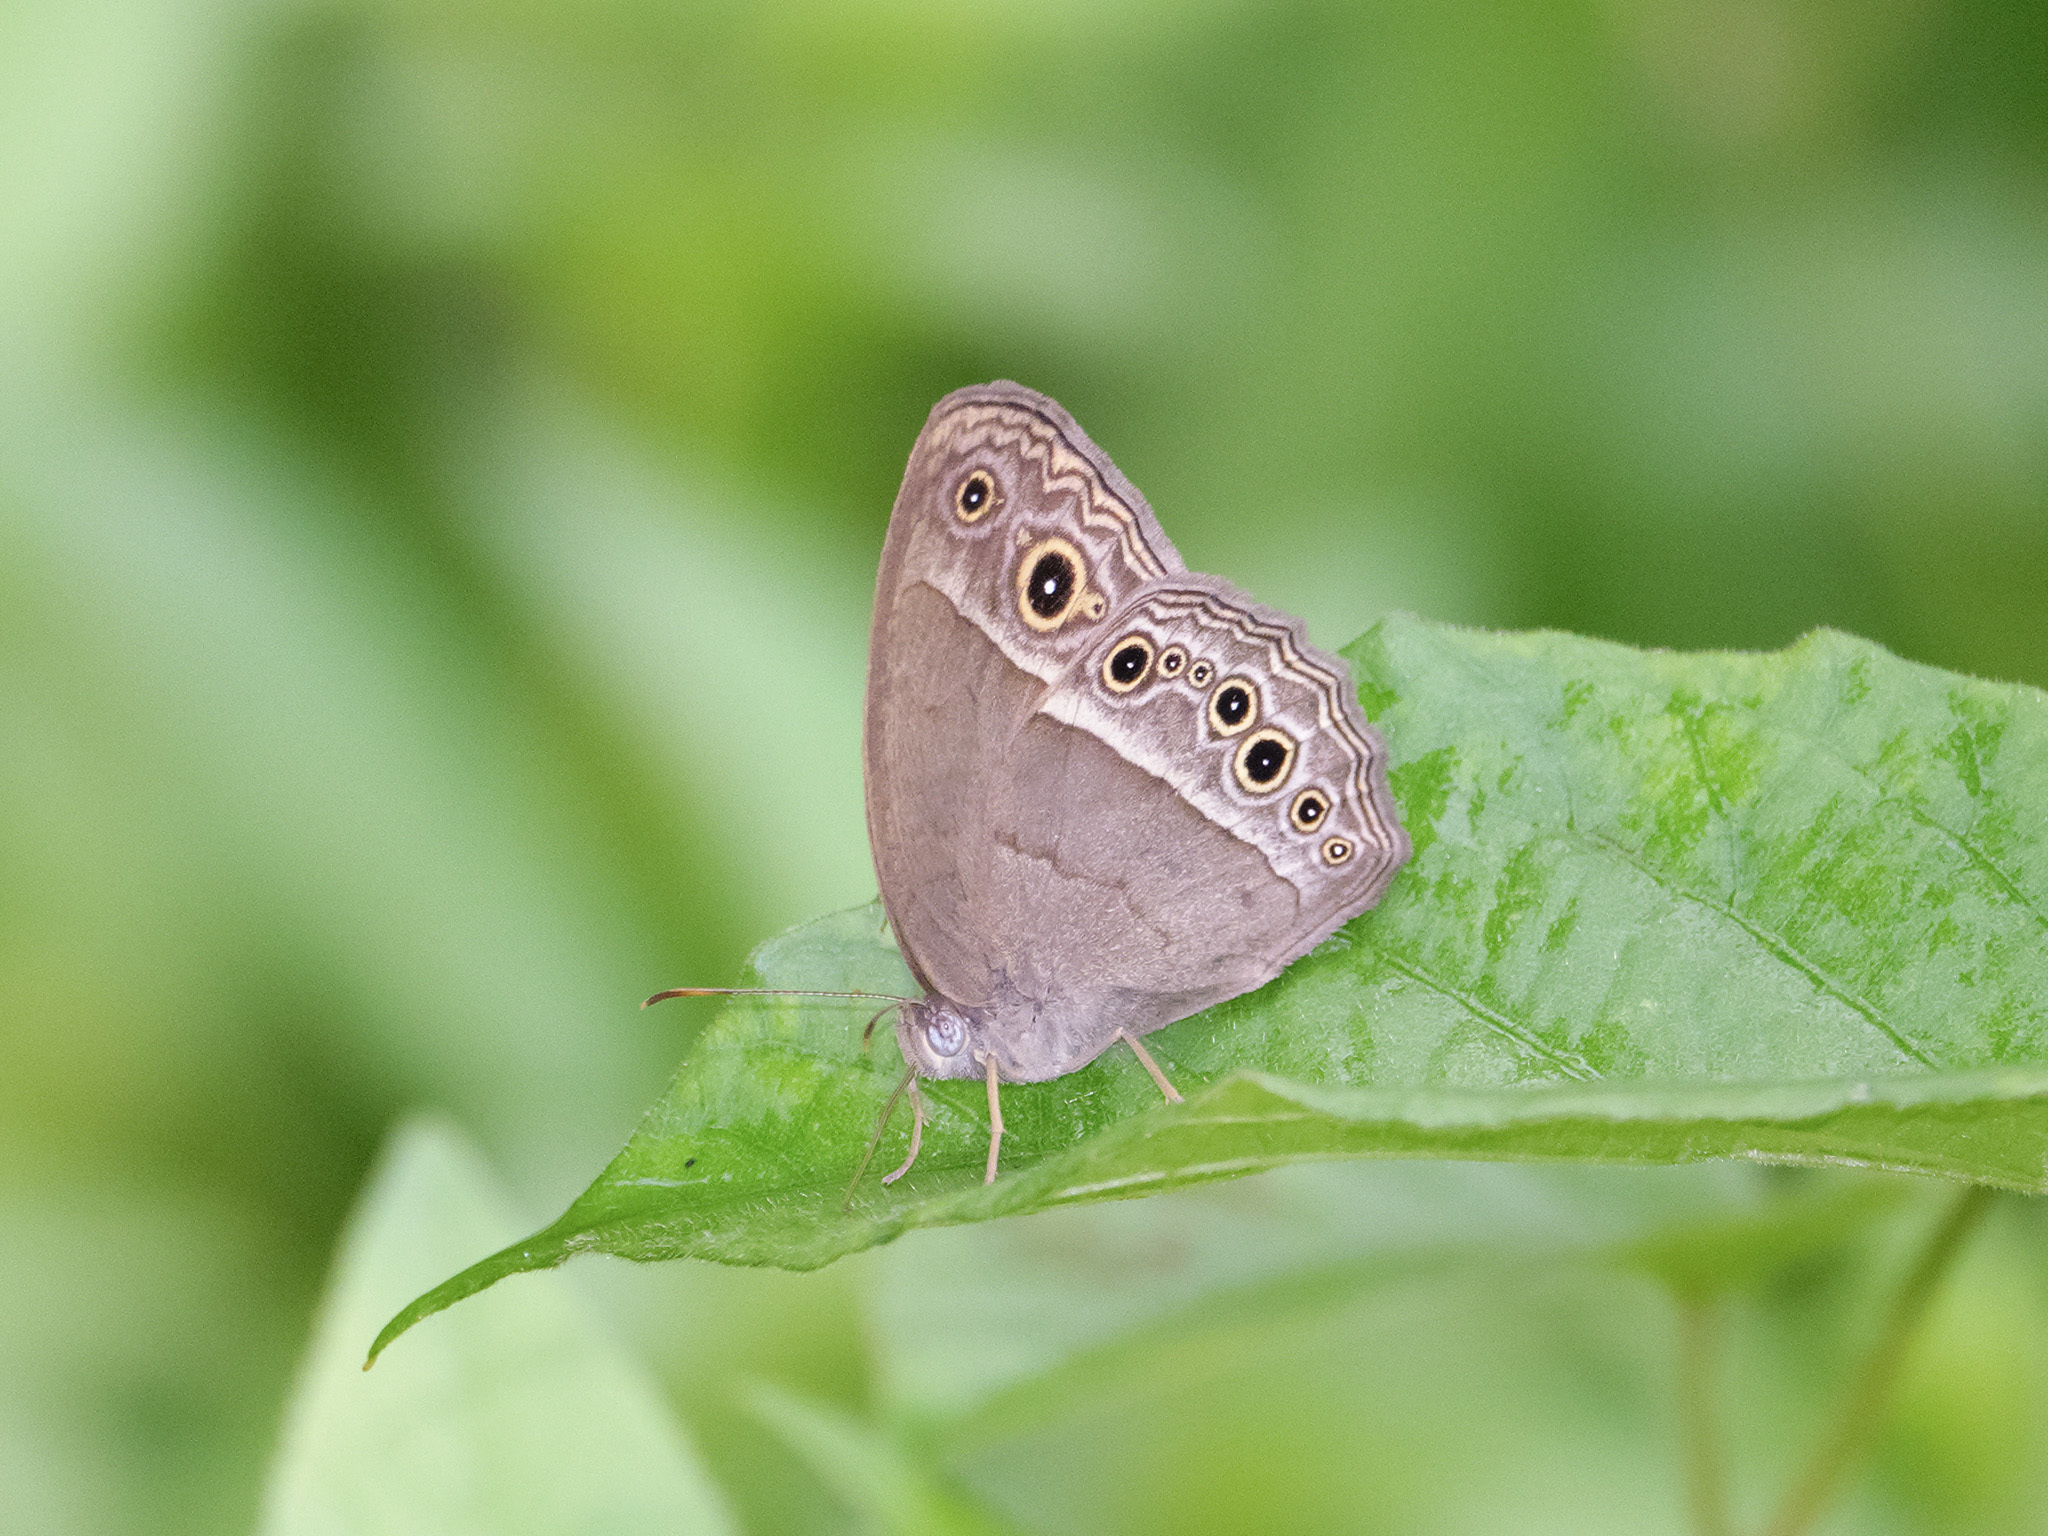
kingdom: Animalia
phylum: Arthropoda
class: Insecta
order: Lepidoptera
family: Nymphalidae
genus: Mycalesis
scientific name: Mycalesis perseoides
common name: Burmese bushbrown
